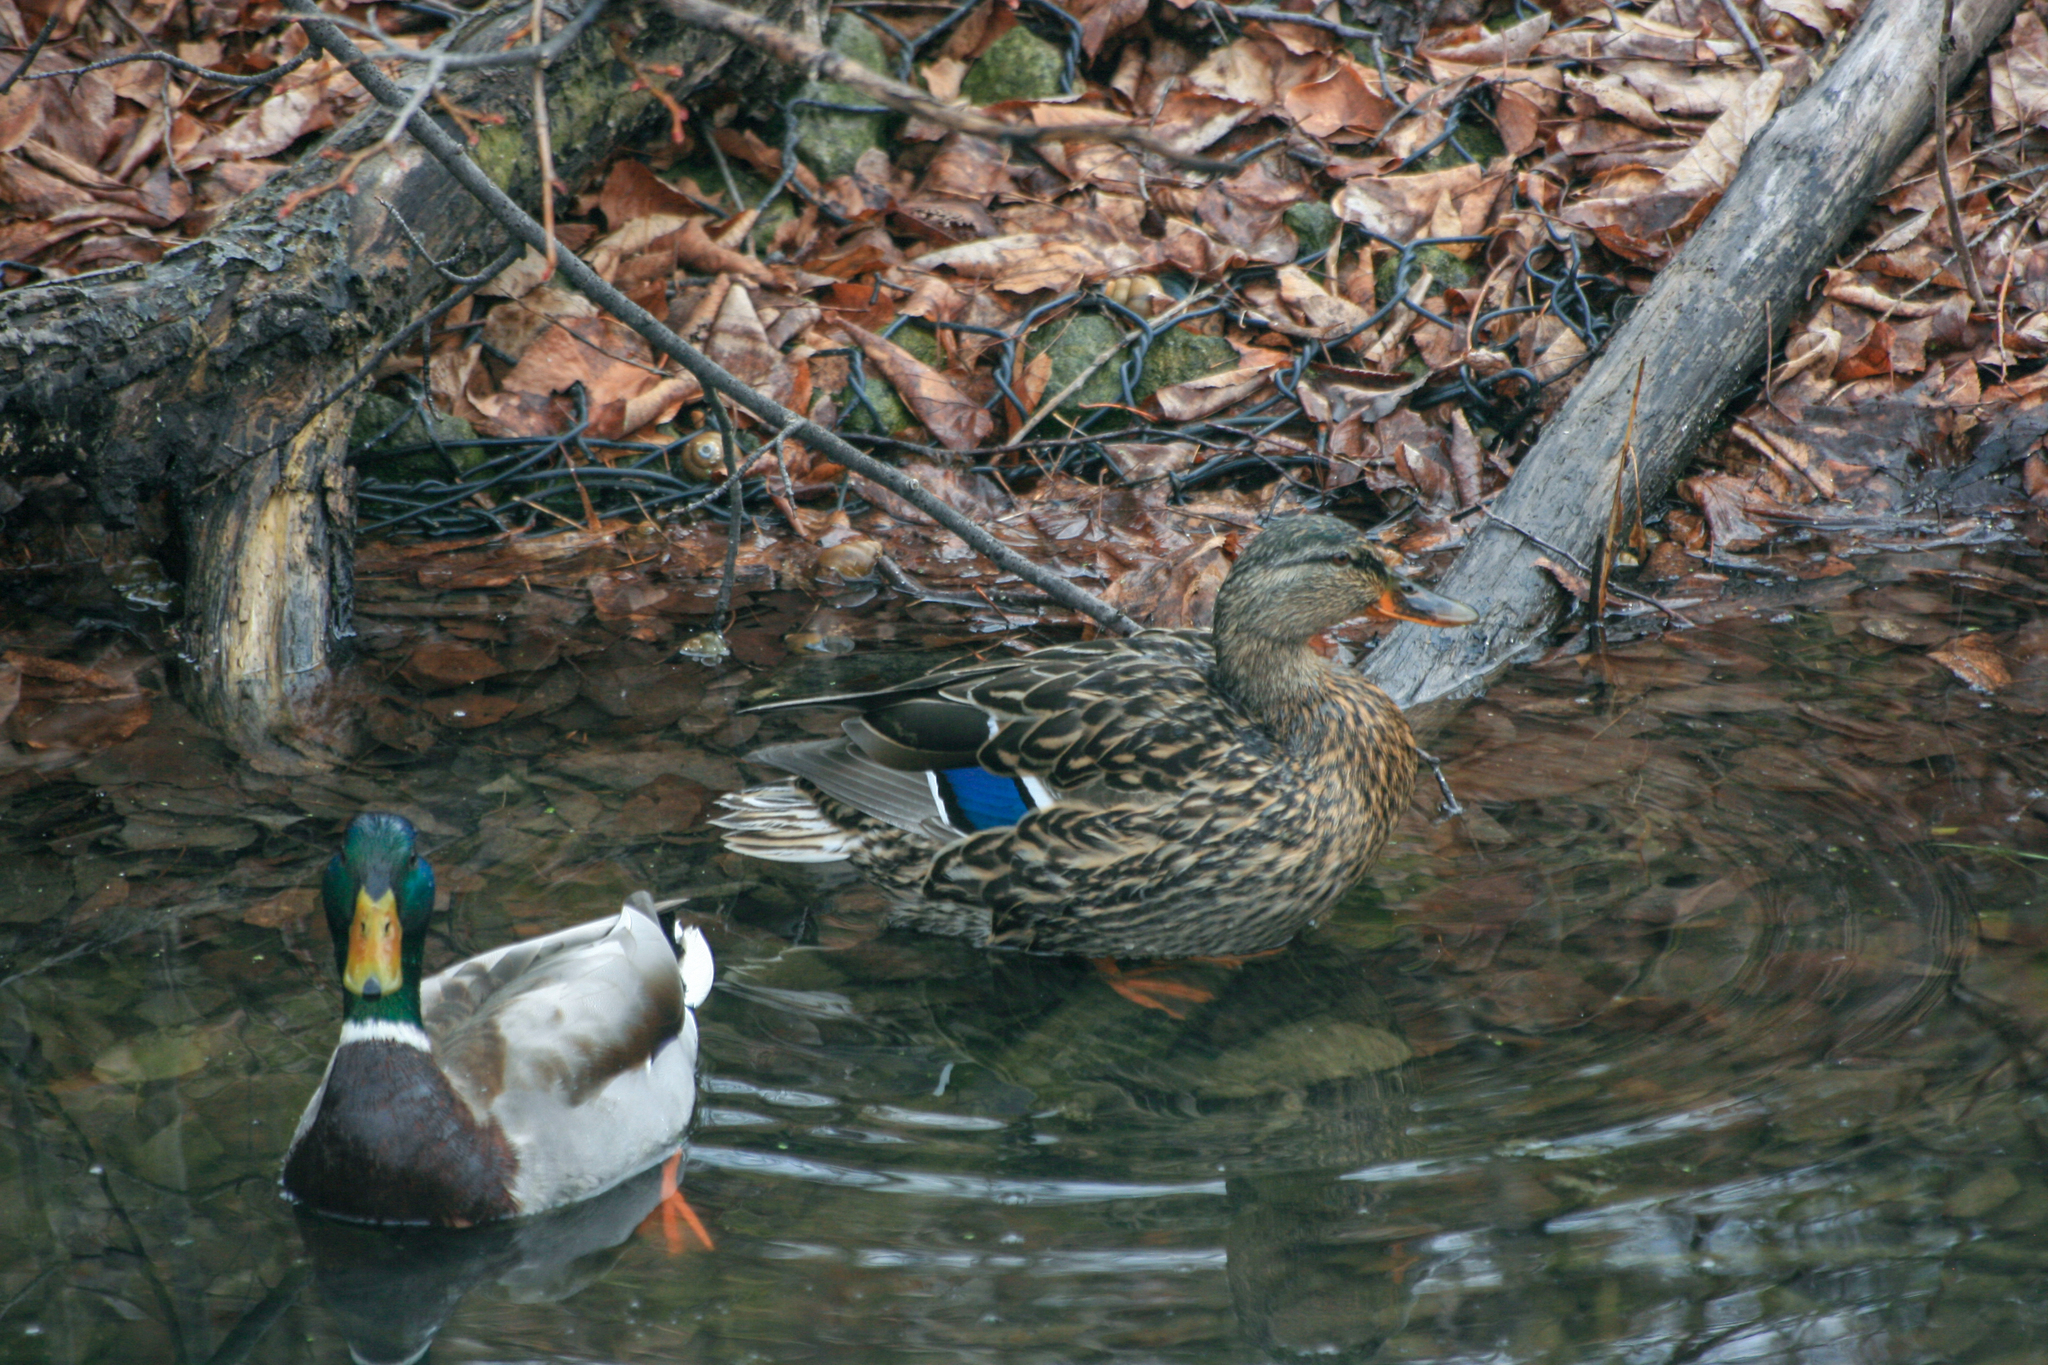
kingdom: Animalia
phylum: Chordata
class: Aves
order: Anseriformes
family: Anatidae
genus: Anas
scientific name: Anas platyrhynchos
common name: Mallard
